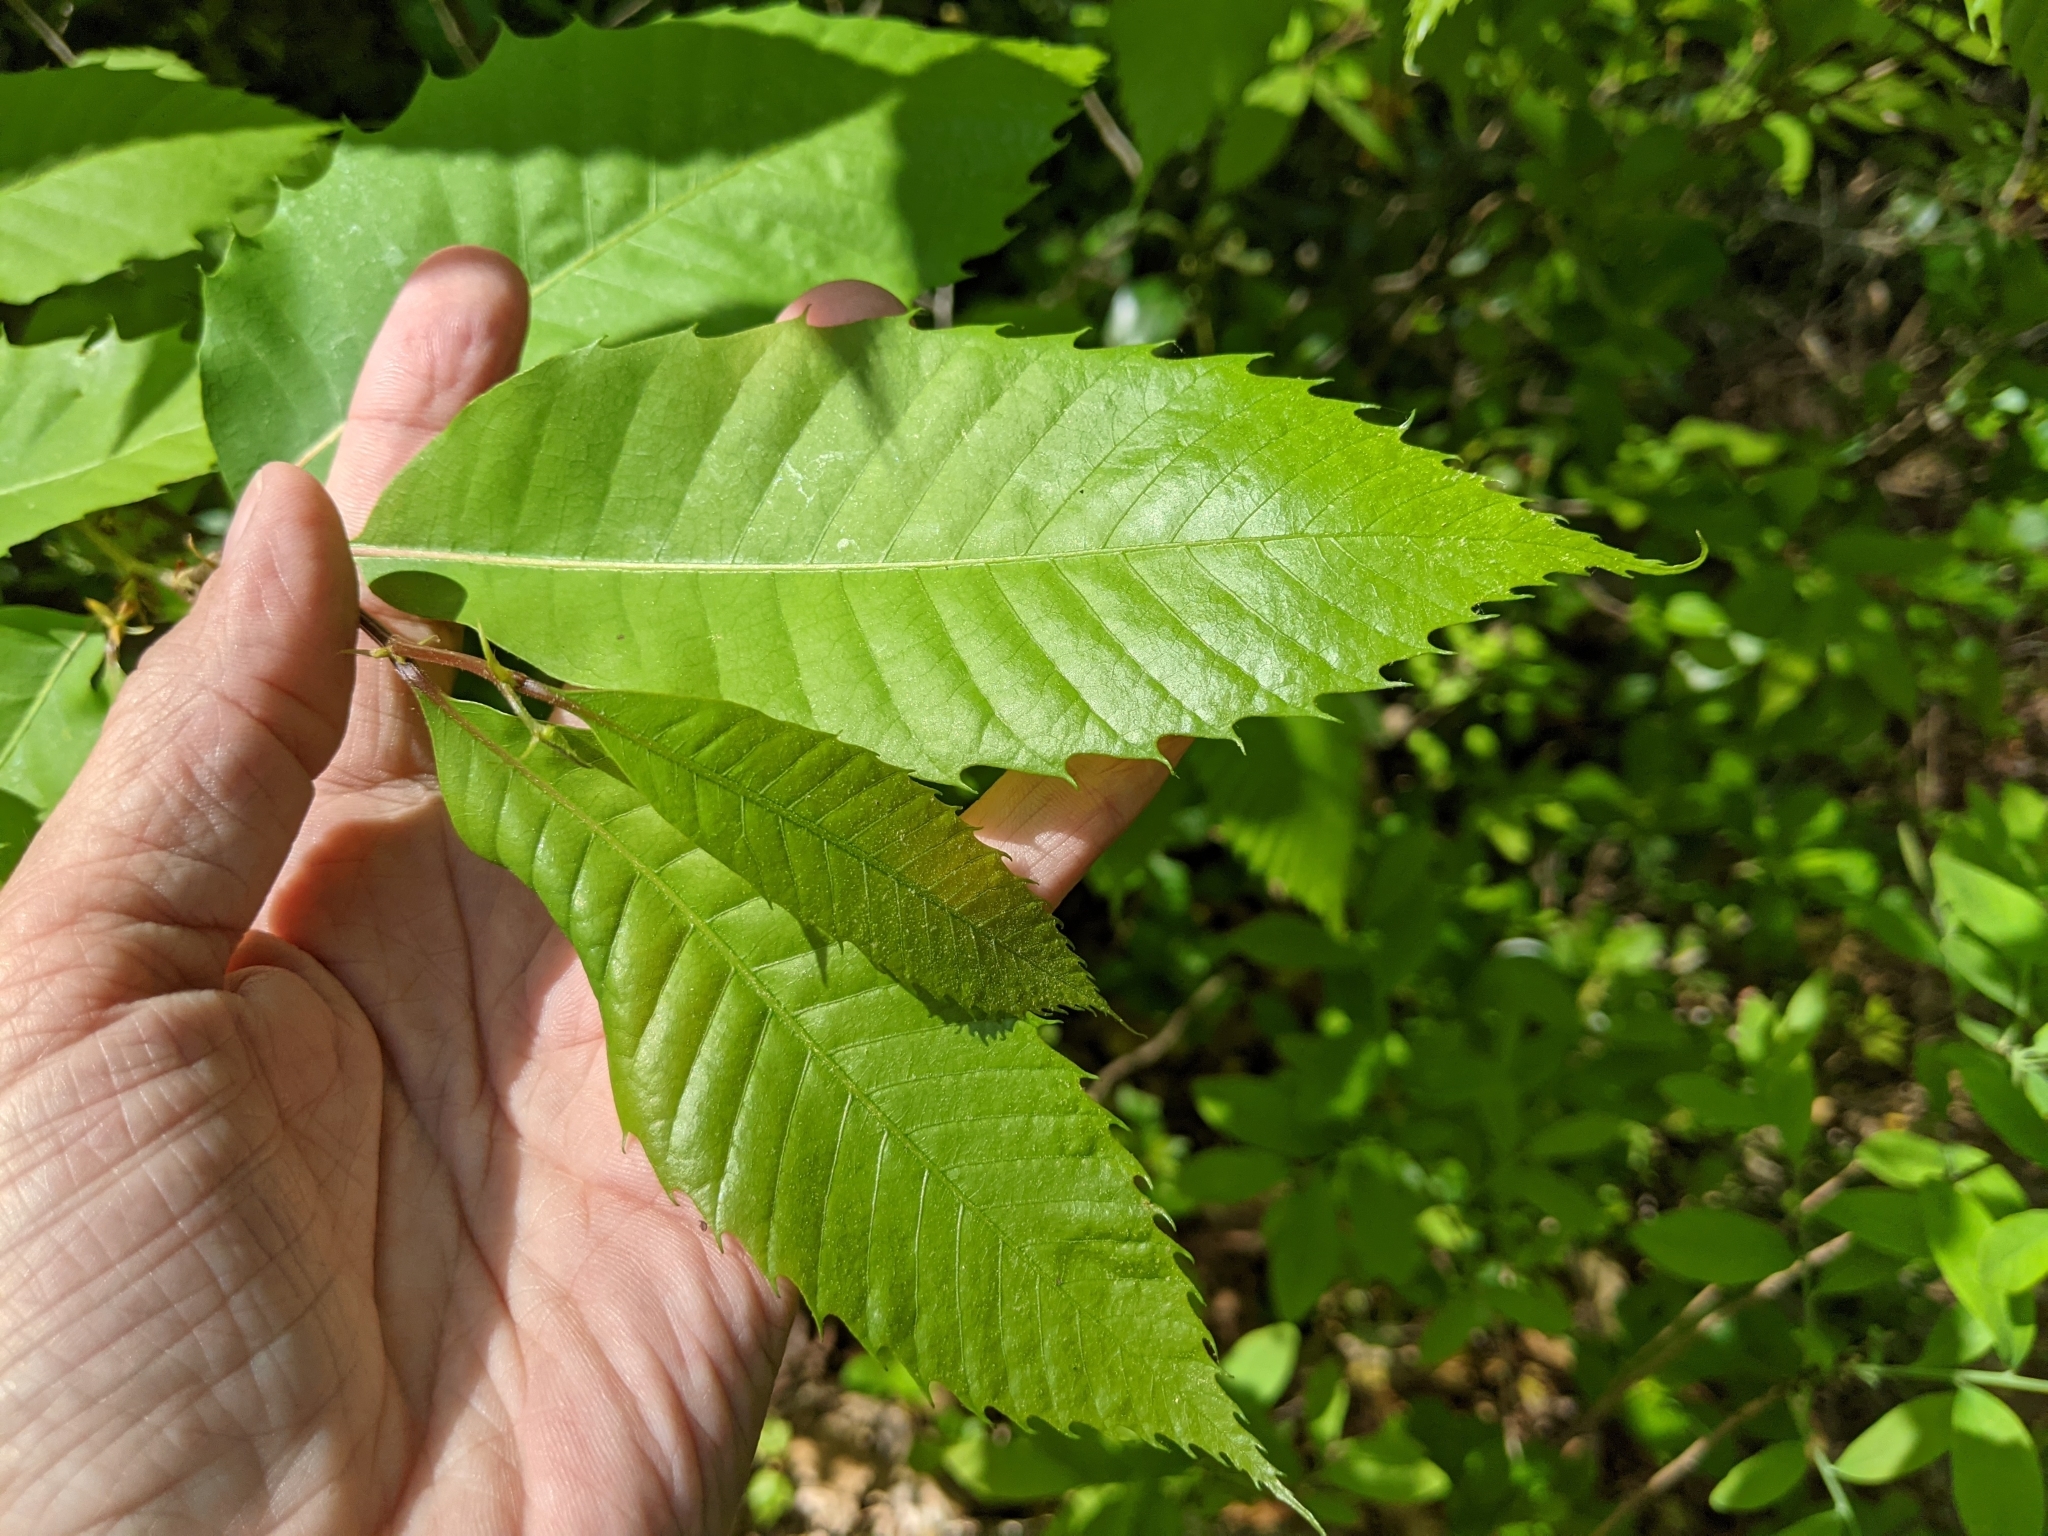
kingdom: Plantae
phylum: Tracheophyta
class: Magnoliopsida
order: Fagales
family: Fagaceae
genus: Castanea
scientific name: Castanea dentata
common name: American chestnut
